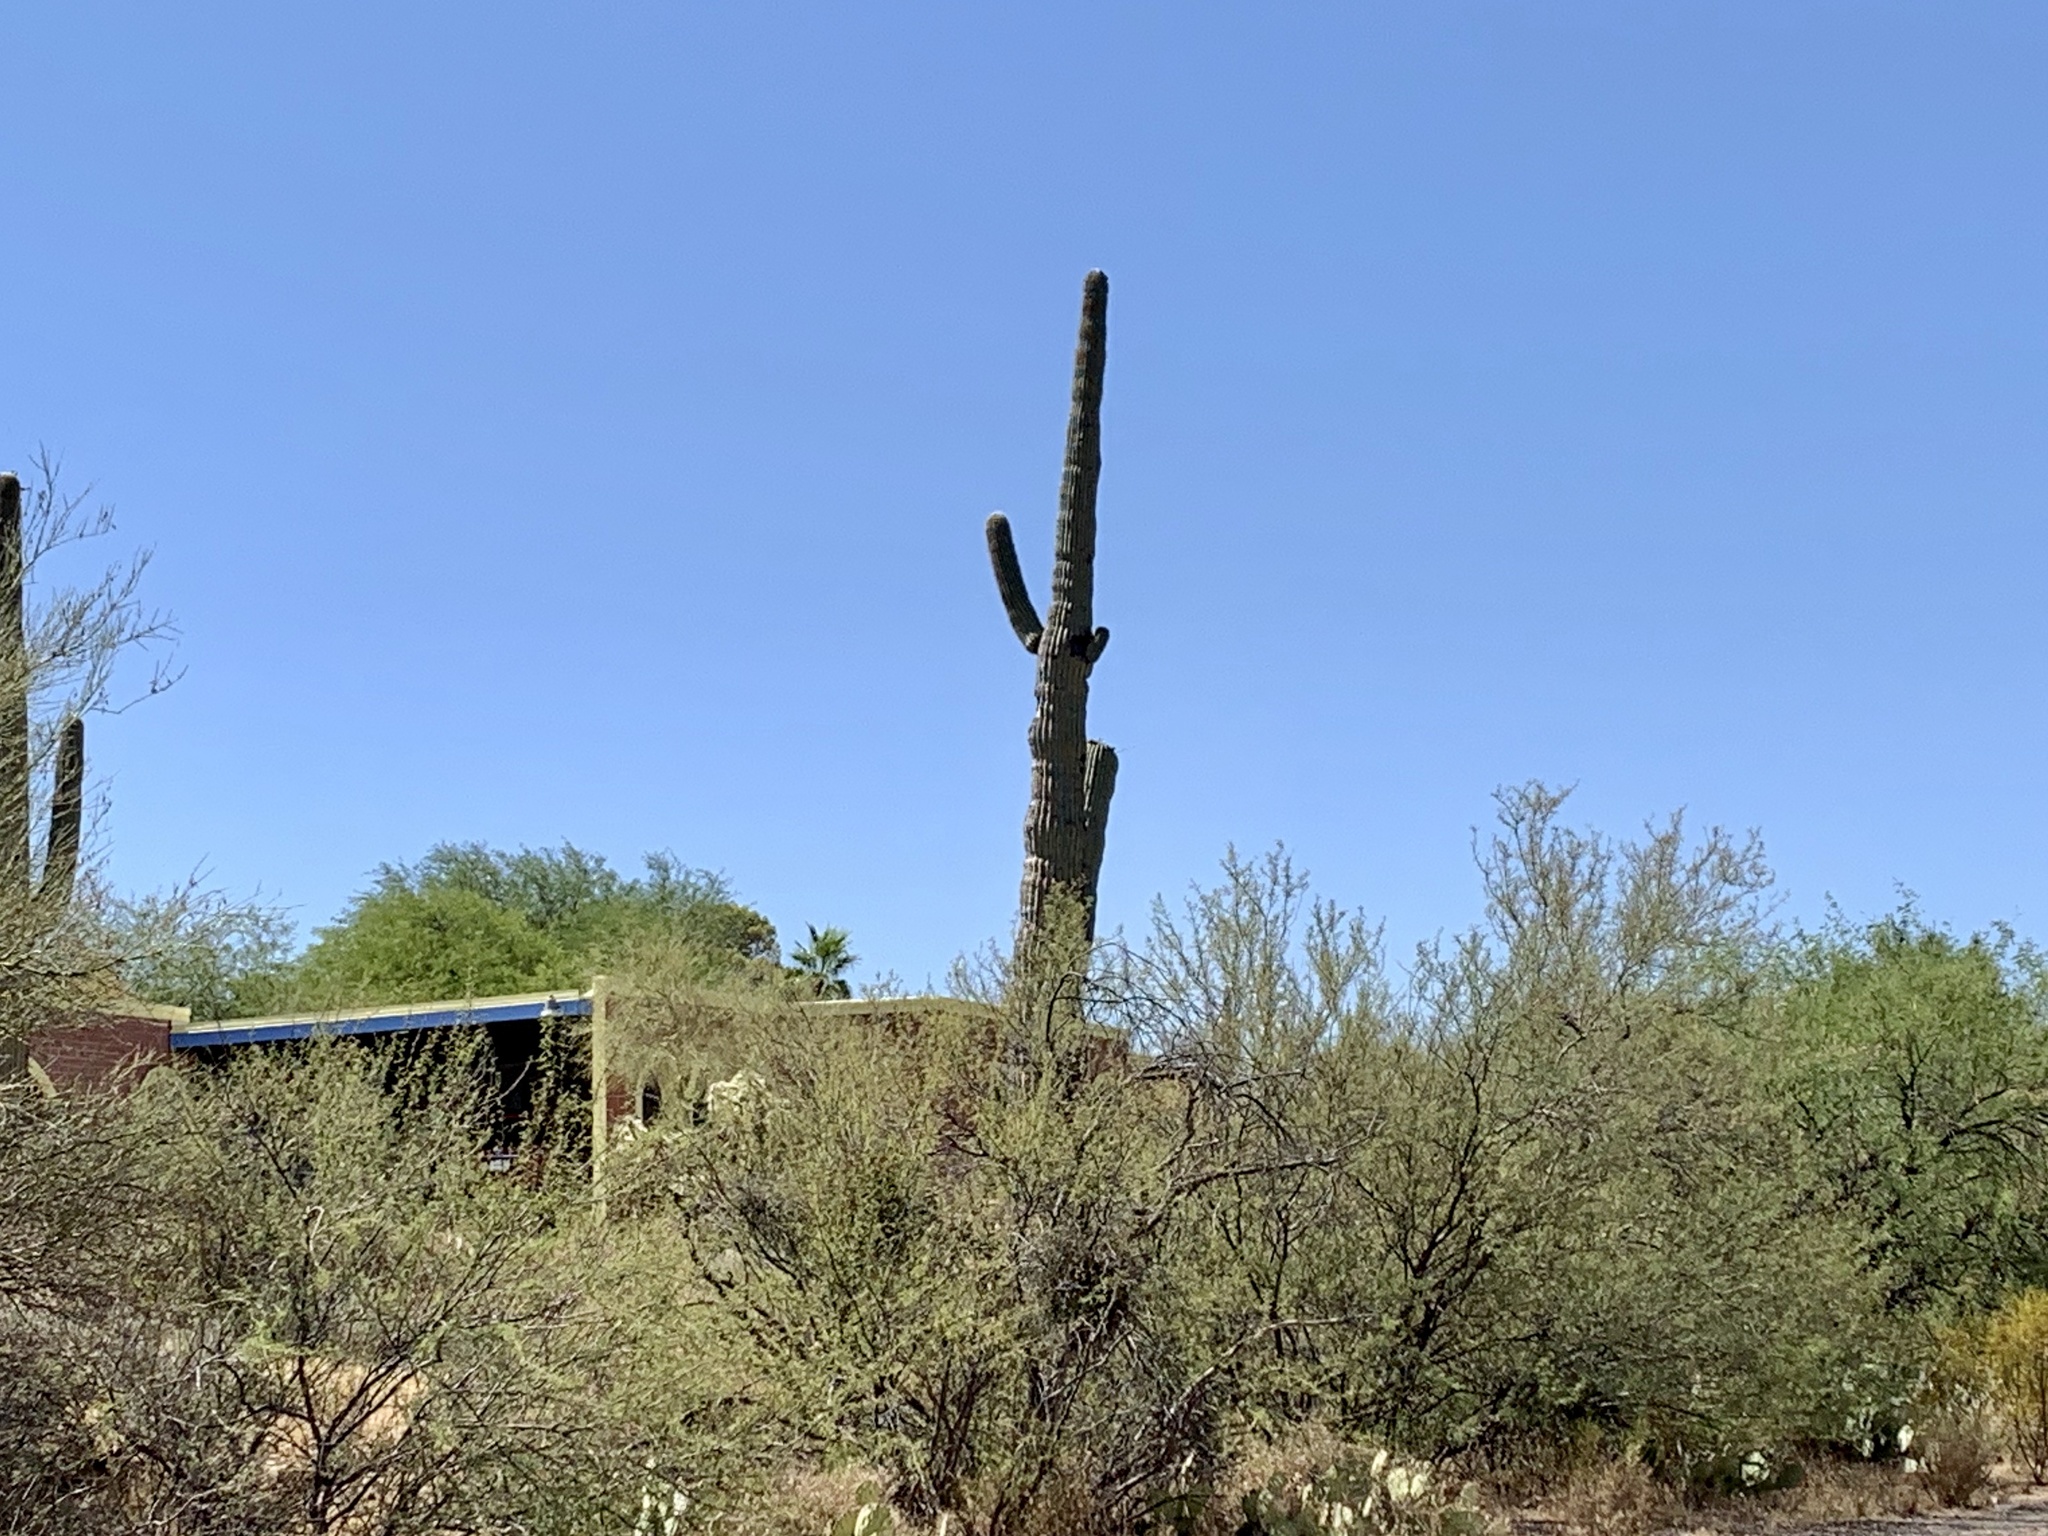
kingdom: Plantae
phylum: Tracheophyta
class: Magnoliopsida
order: Caryophyllales
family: Cactaceae
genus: Carnegiea
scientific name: Carnegiea gigantea
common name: Saguaro
